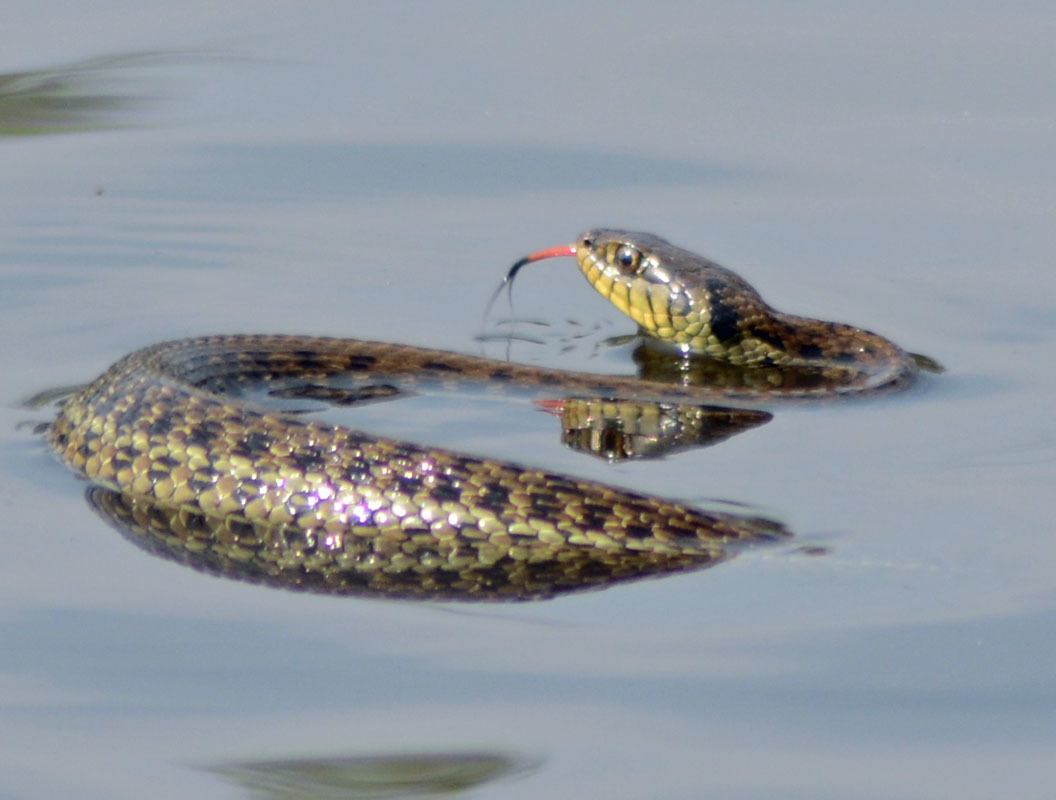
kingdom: Animalia
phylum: Chordata
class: Squamata
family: Colubridae
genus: Thamnophis
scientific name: Thamnophis eques
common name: Mexican garter snake
